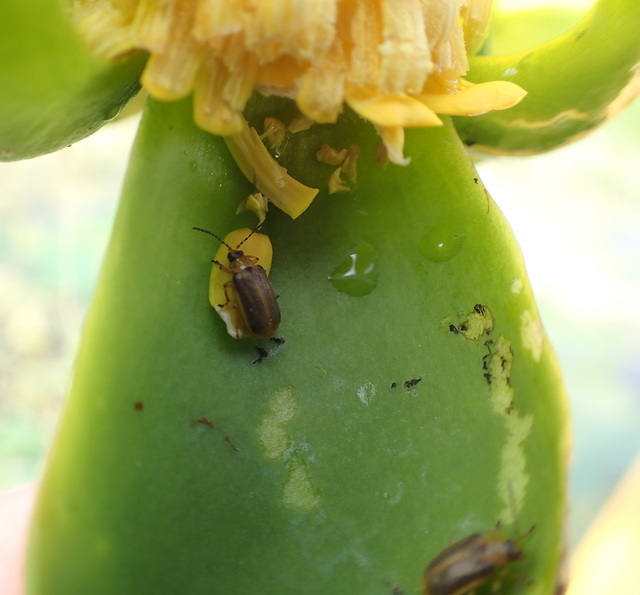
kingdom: Animalia
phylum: Arthropoda
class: Insecta
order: Coleoptera
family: Chrysomelidae
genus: Galerucella
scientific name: Galerucella nymphaeae
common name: Leaf beetle
